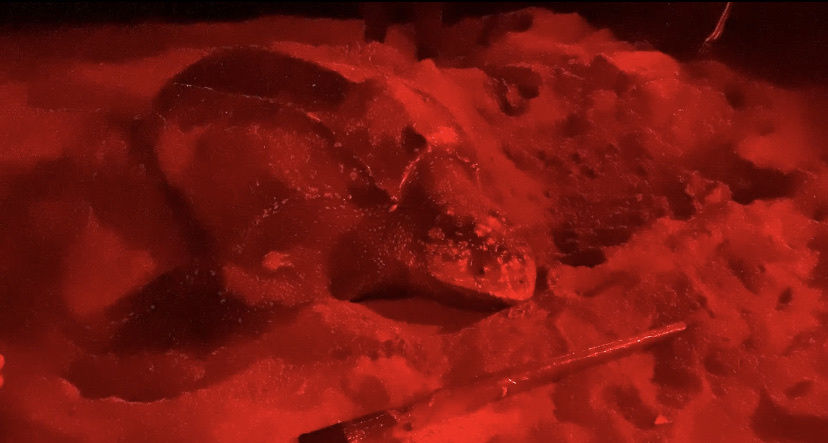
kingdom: Animalia
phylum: Chordata
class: Testudines
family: Dermochelyidae
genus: Dermochelys
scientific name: Dermochelys coriacea
